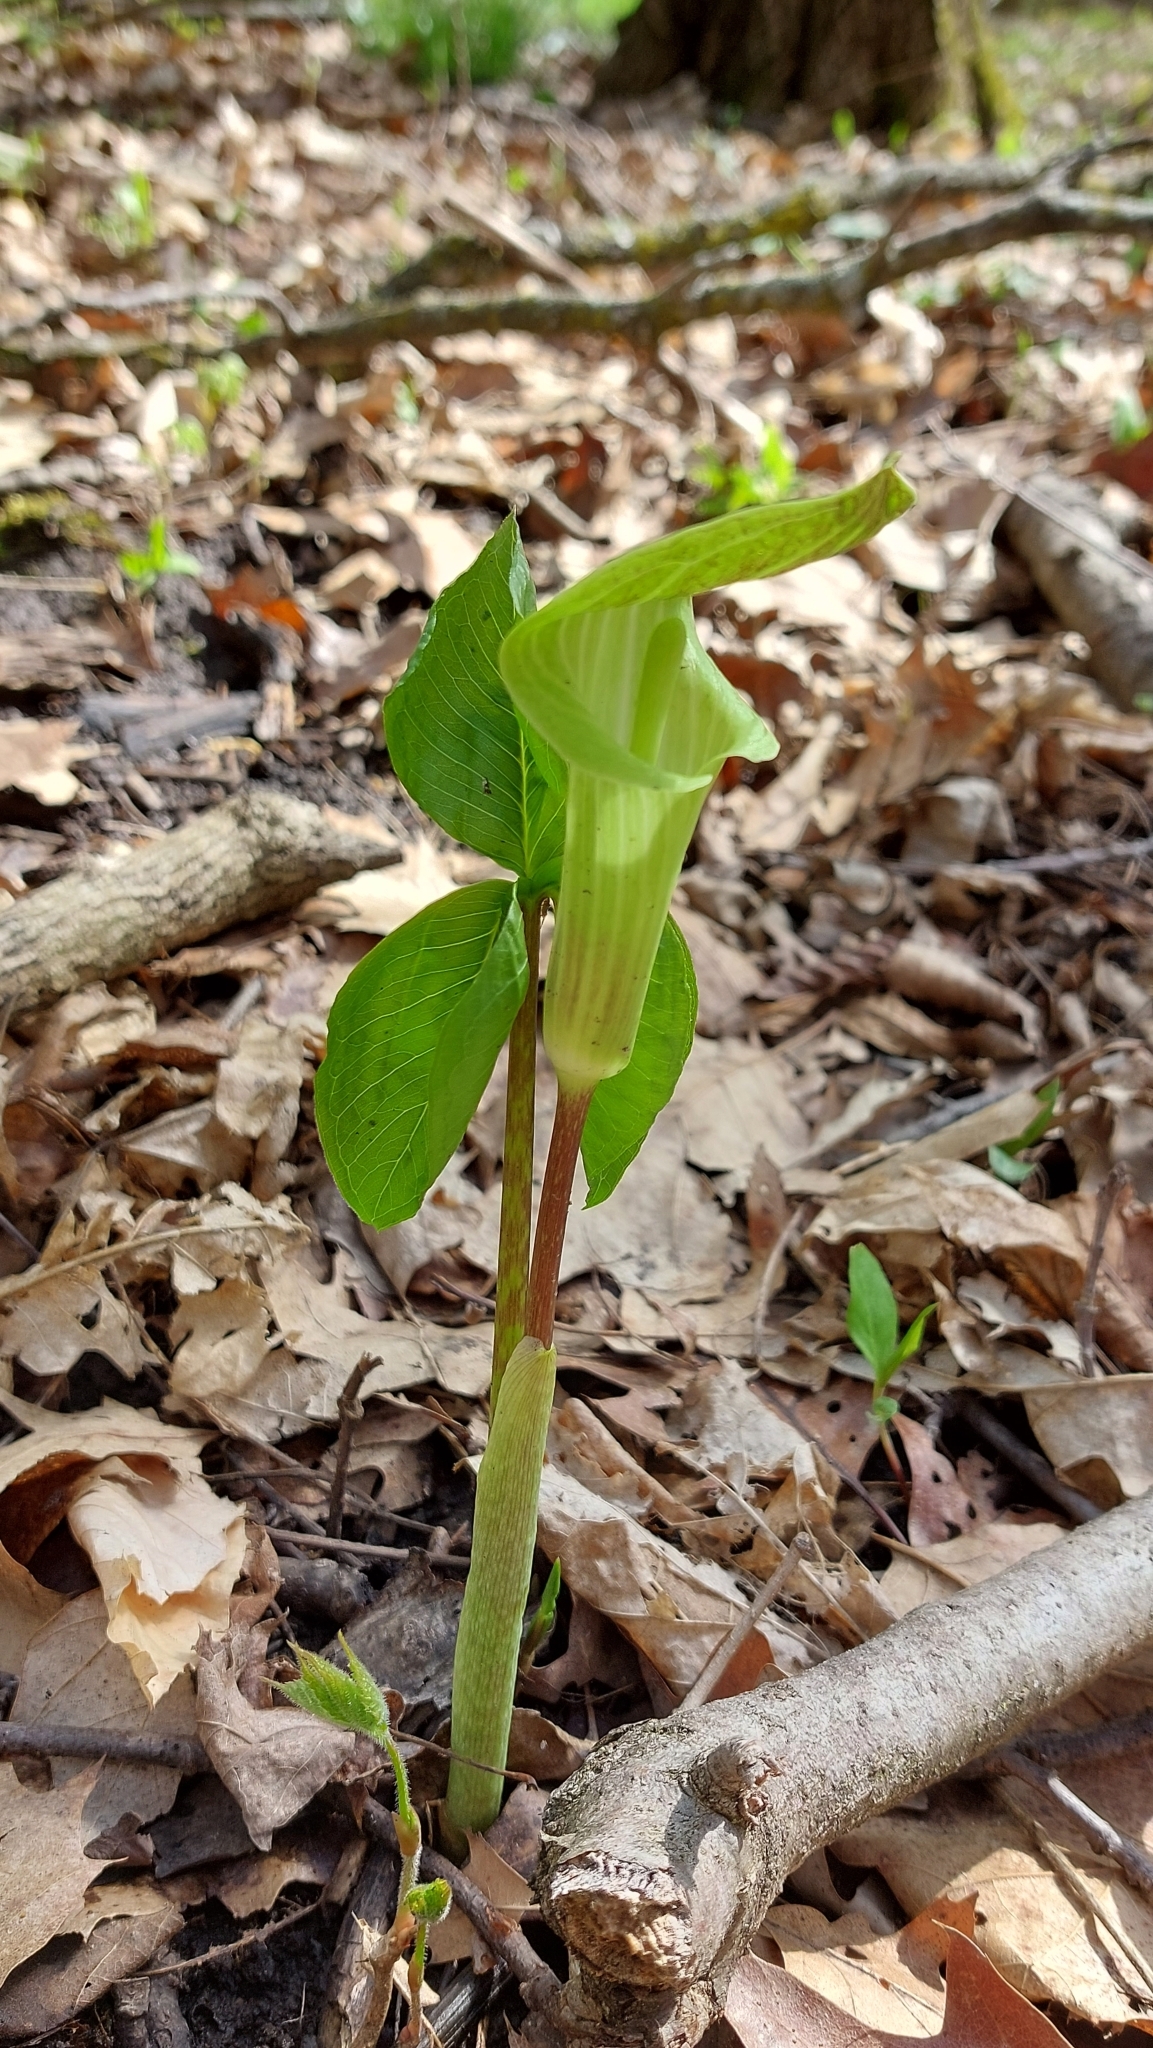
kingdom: Plantae
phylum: Tracheophyta
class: Liliopsida
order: Alismatales
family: Araceae
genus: Arisaema
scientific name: Arisaema triphyllum
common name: Jack-in-the-pulpit
